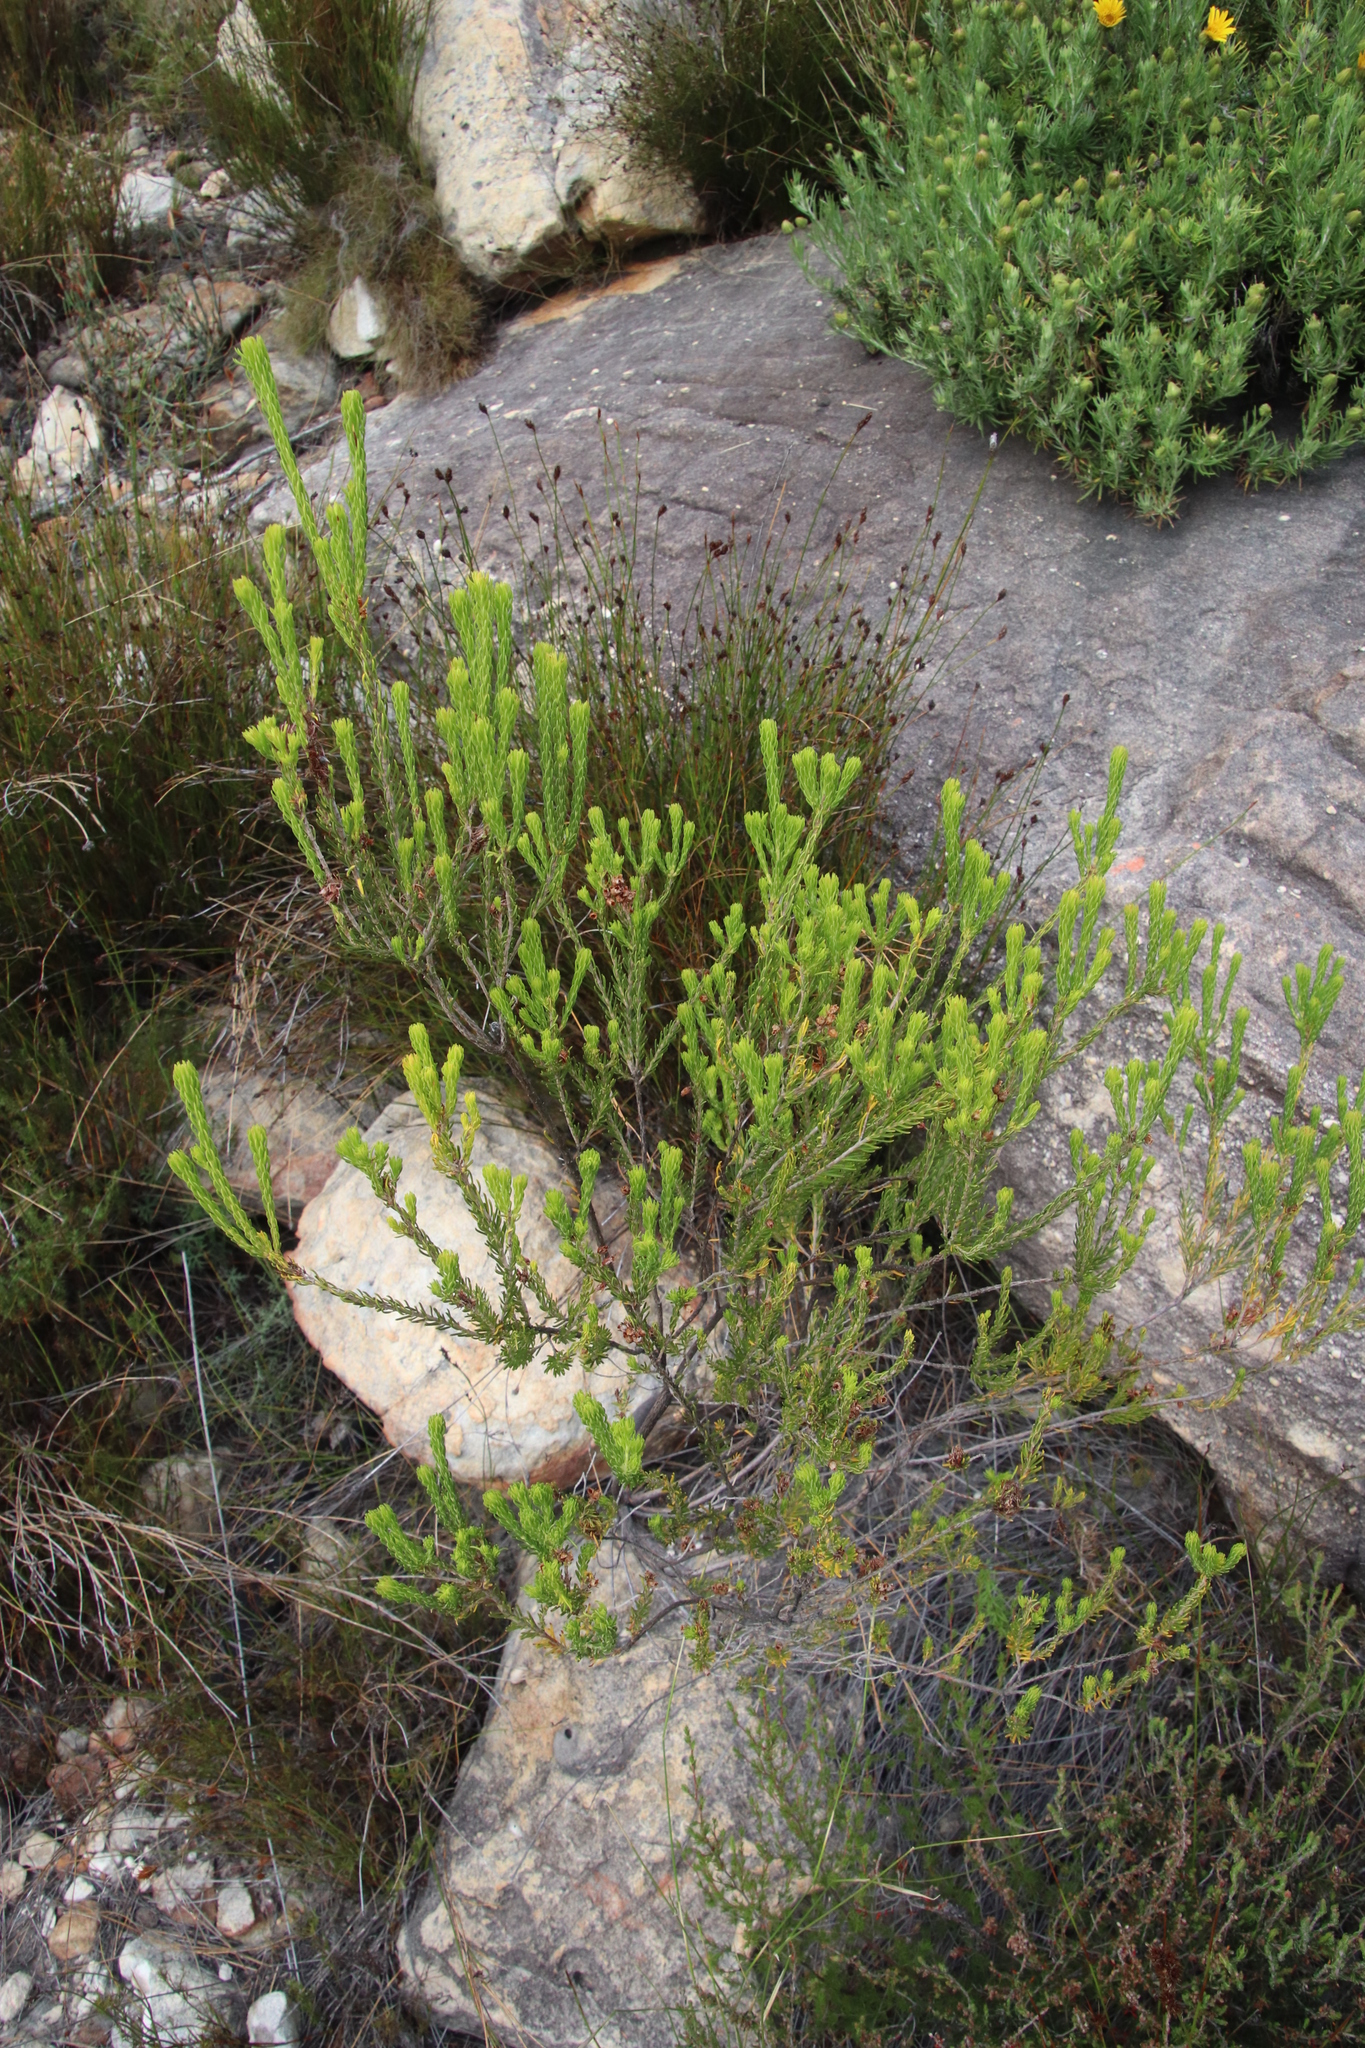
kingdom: Plantae
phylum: Tracheophyta
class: Magnoliopsida
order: Ericales
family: Ericaceae
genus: Erica
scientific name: Erica phillipsii
